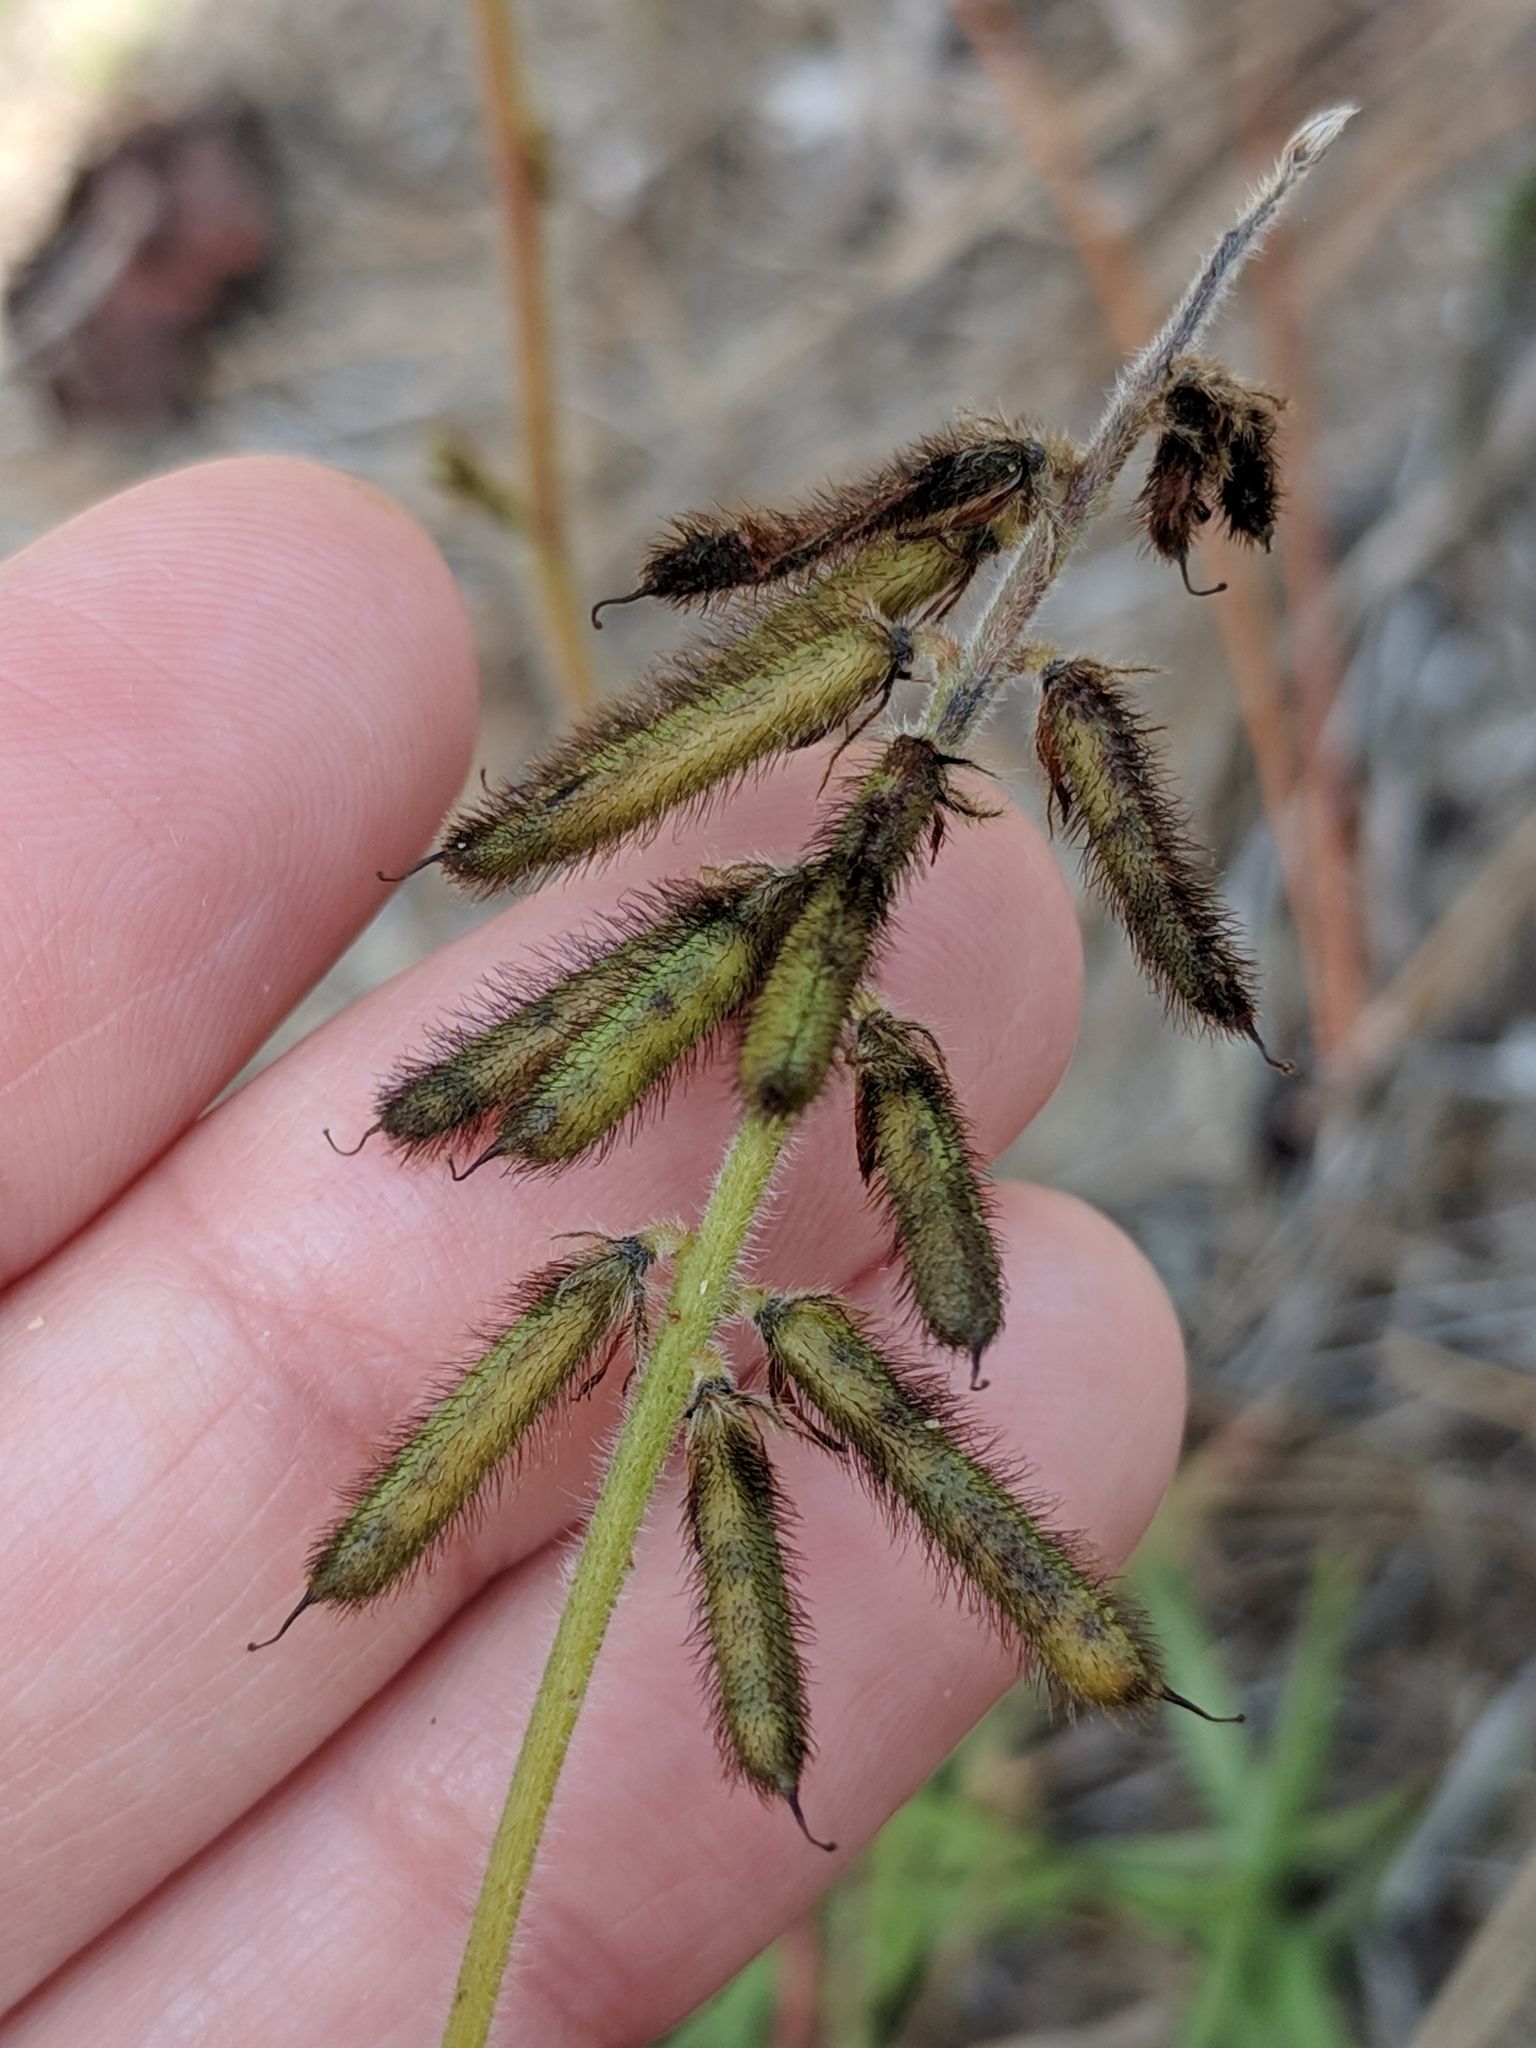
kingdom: Plantae
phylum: Tracheophyta
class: Magnoliopsida
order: Fabales
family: Fabaceae
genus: Indigofera
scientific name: Indigofera hirsuta
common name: Hairy indigo
